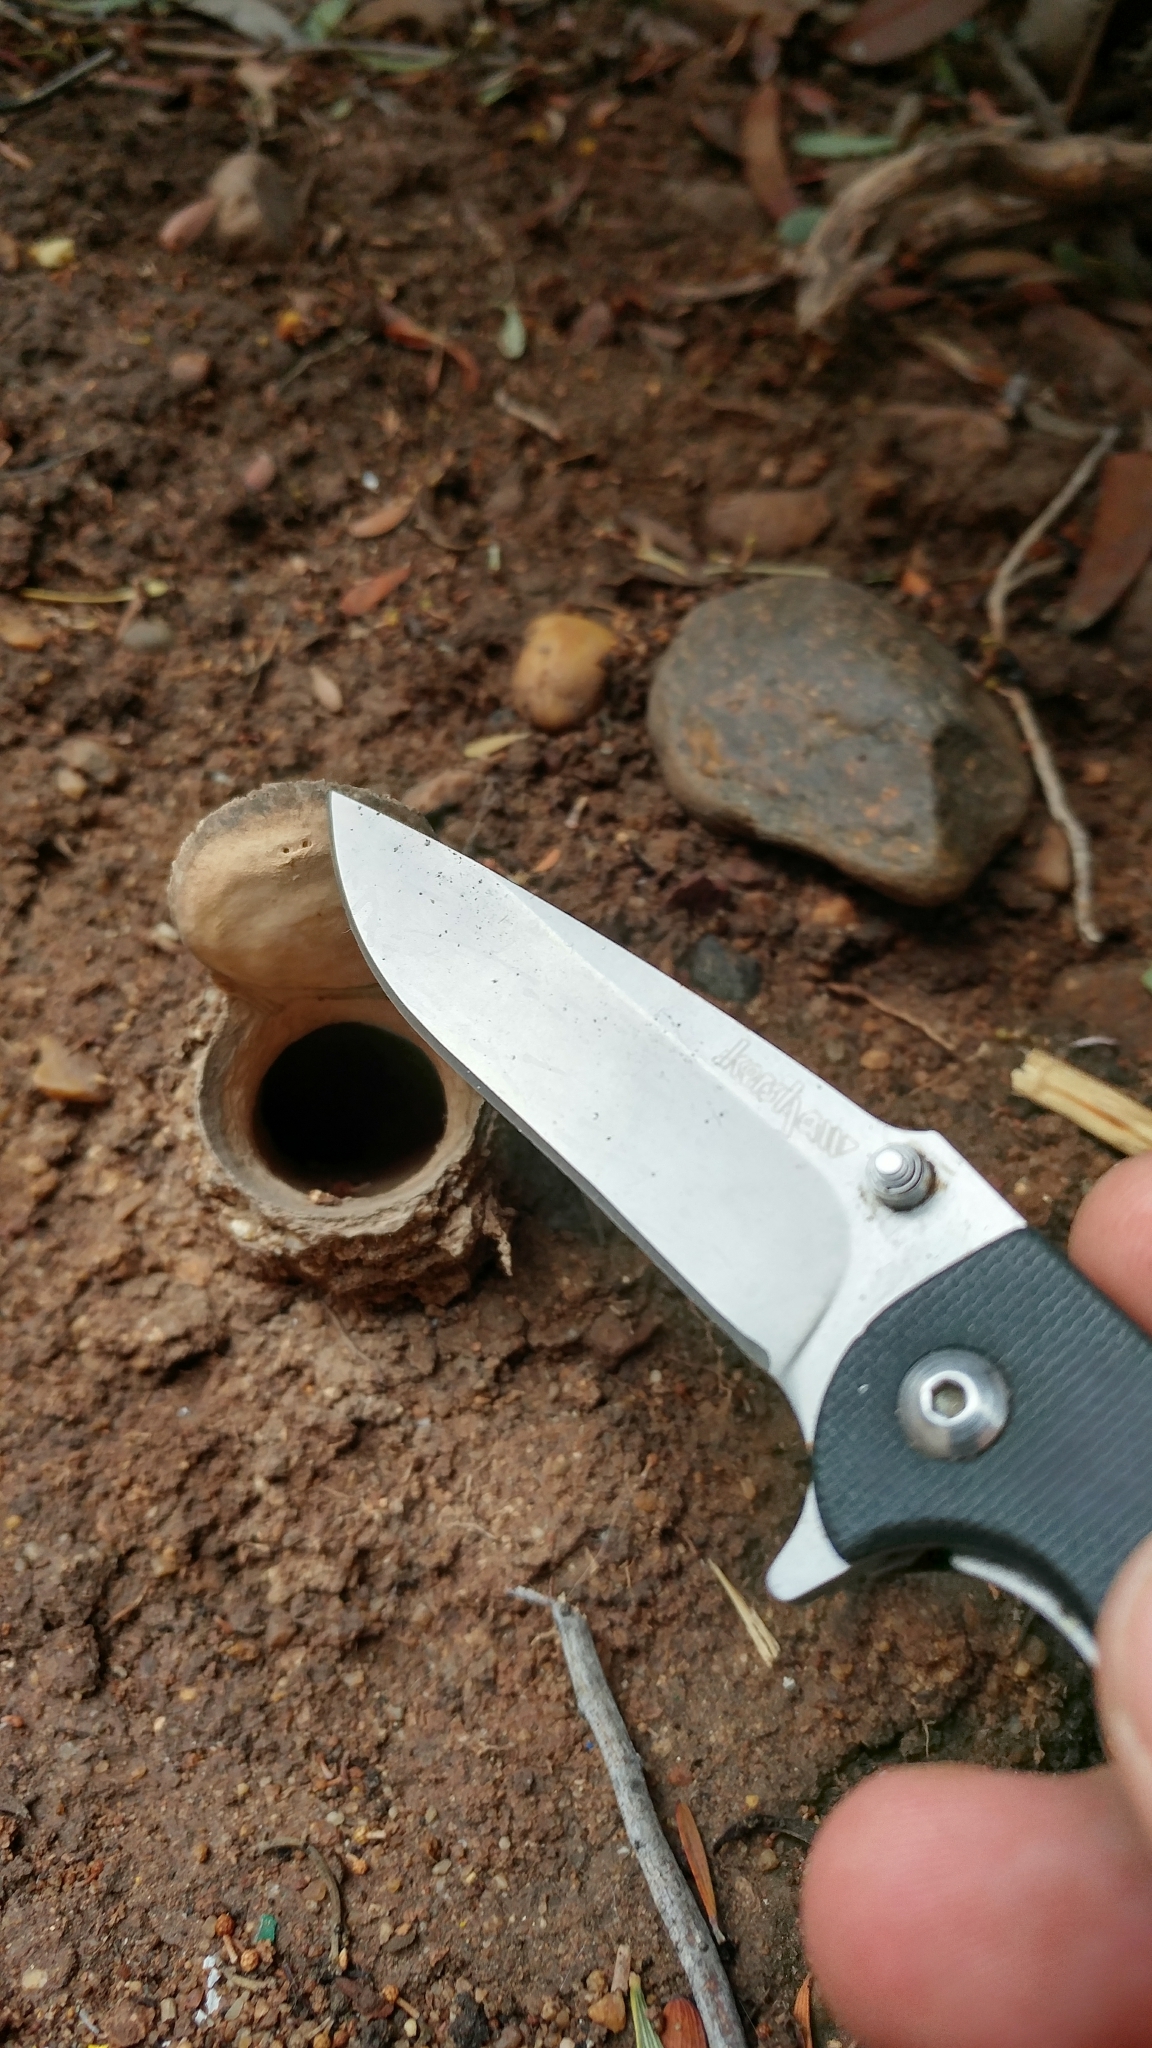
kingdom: Animalia
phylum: Arthropoda
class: Arachnida
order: Araneae
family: Halonoproctidae
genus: Bothriocyrtum
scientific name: Bothriocyrtum californicum
